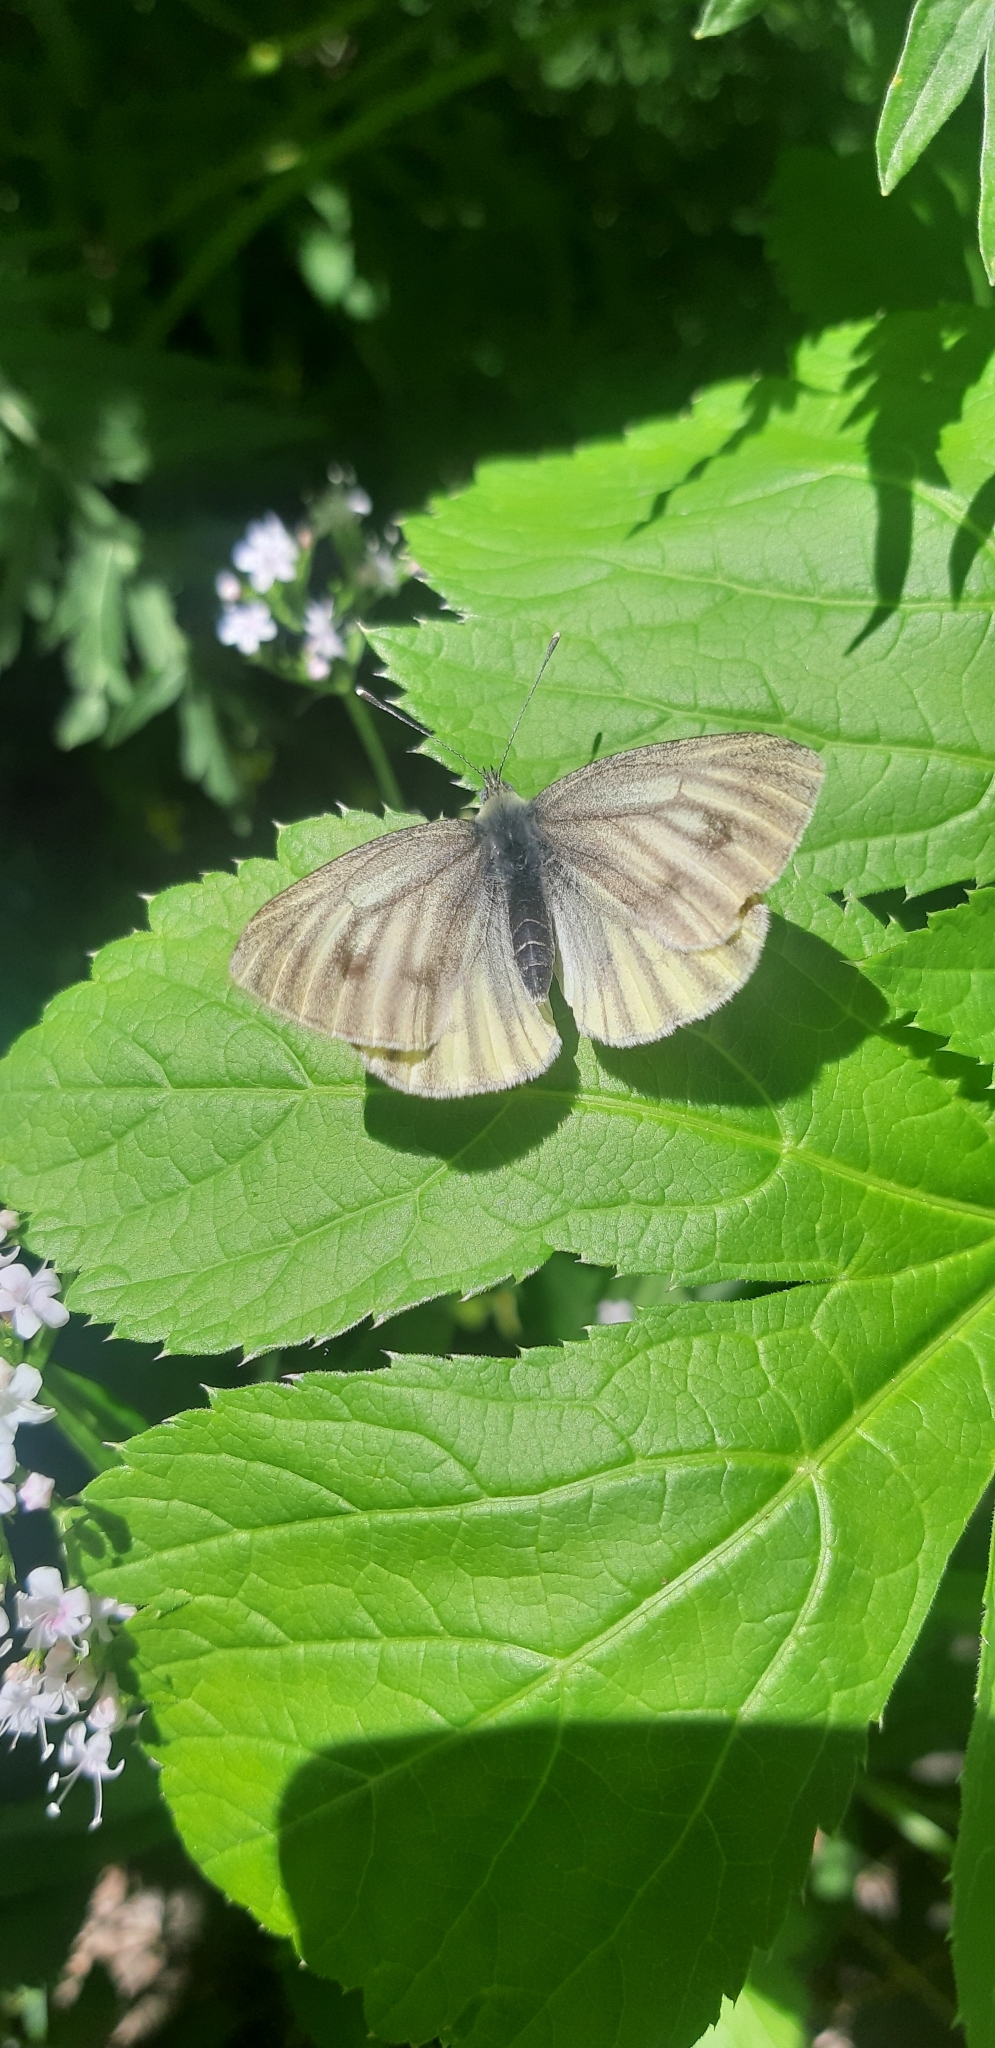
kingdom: Animalia
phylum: Arthropoda
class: Insecta
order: Lepidoptera
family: Pieridae
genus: Pieris
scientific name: Pieris bryoniae
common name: Mountain green-veined white
